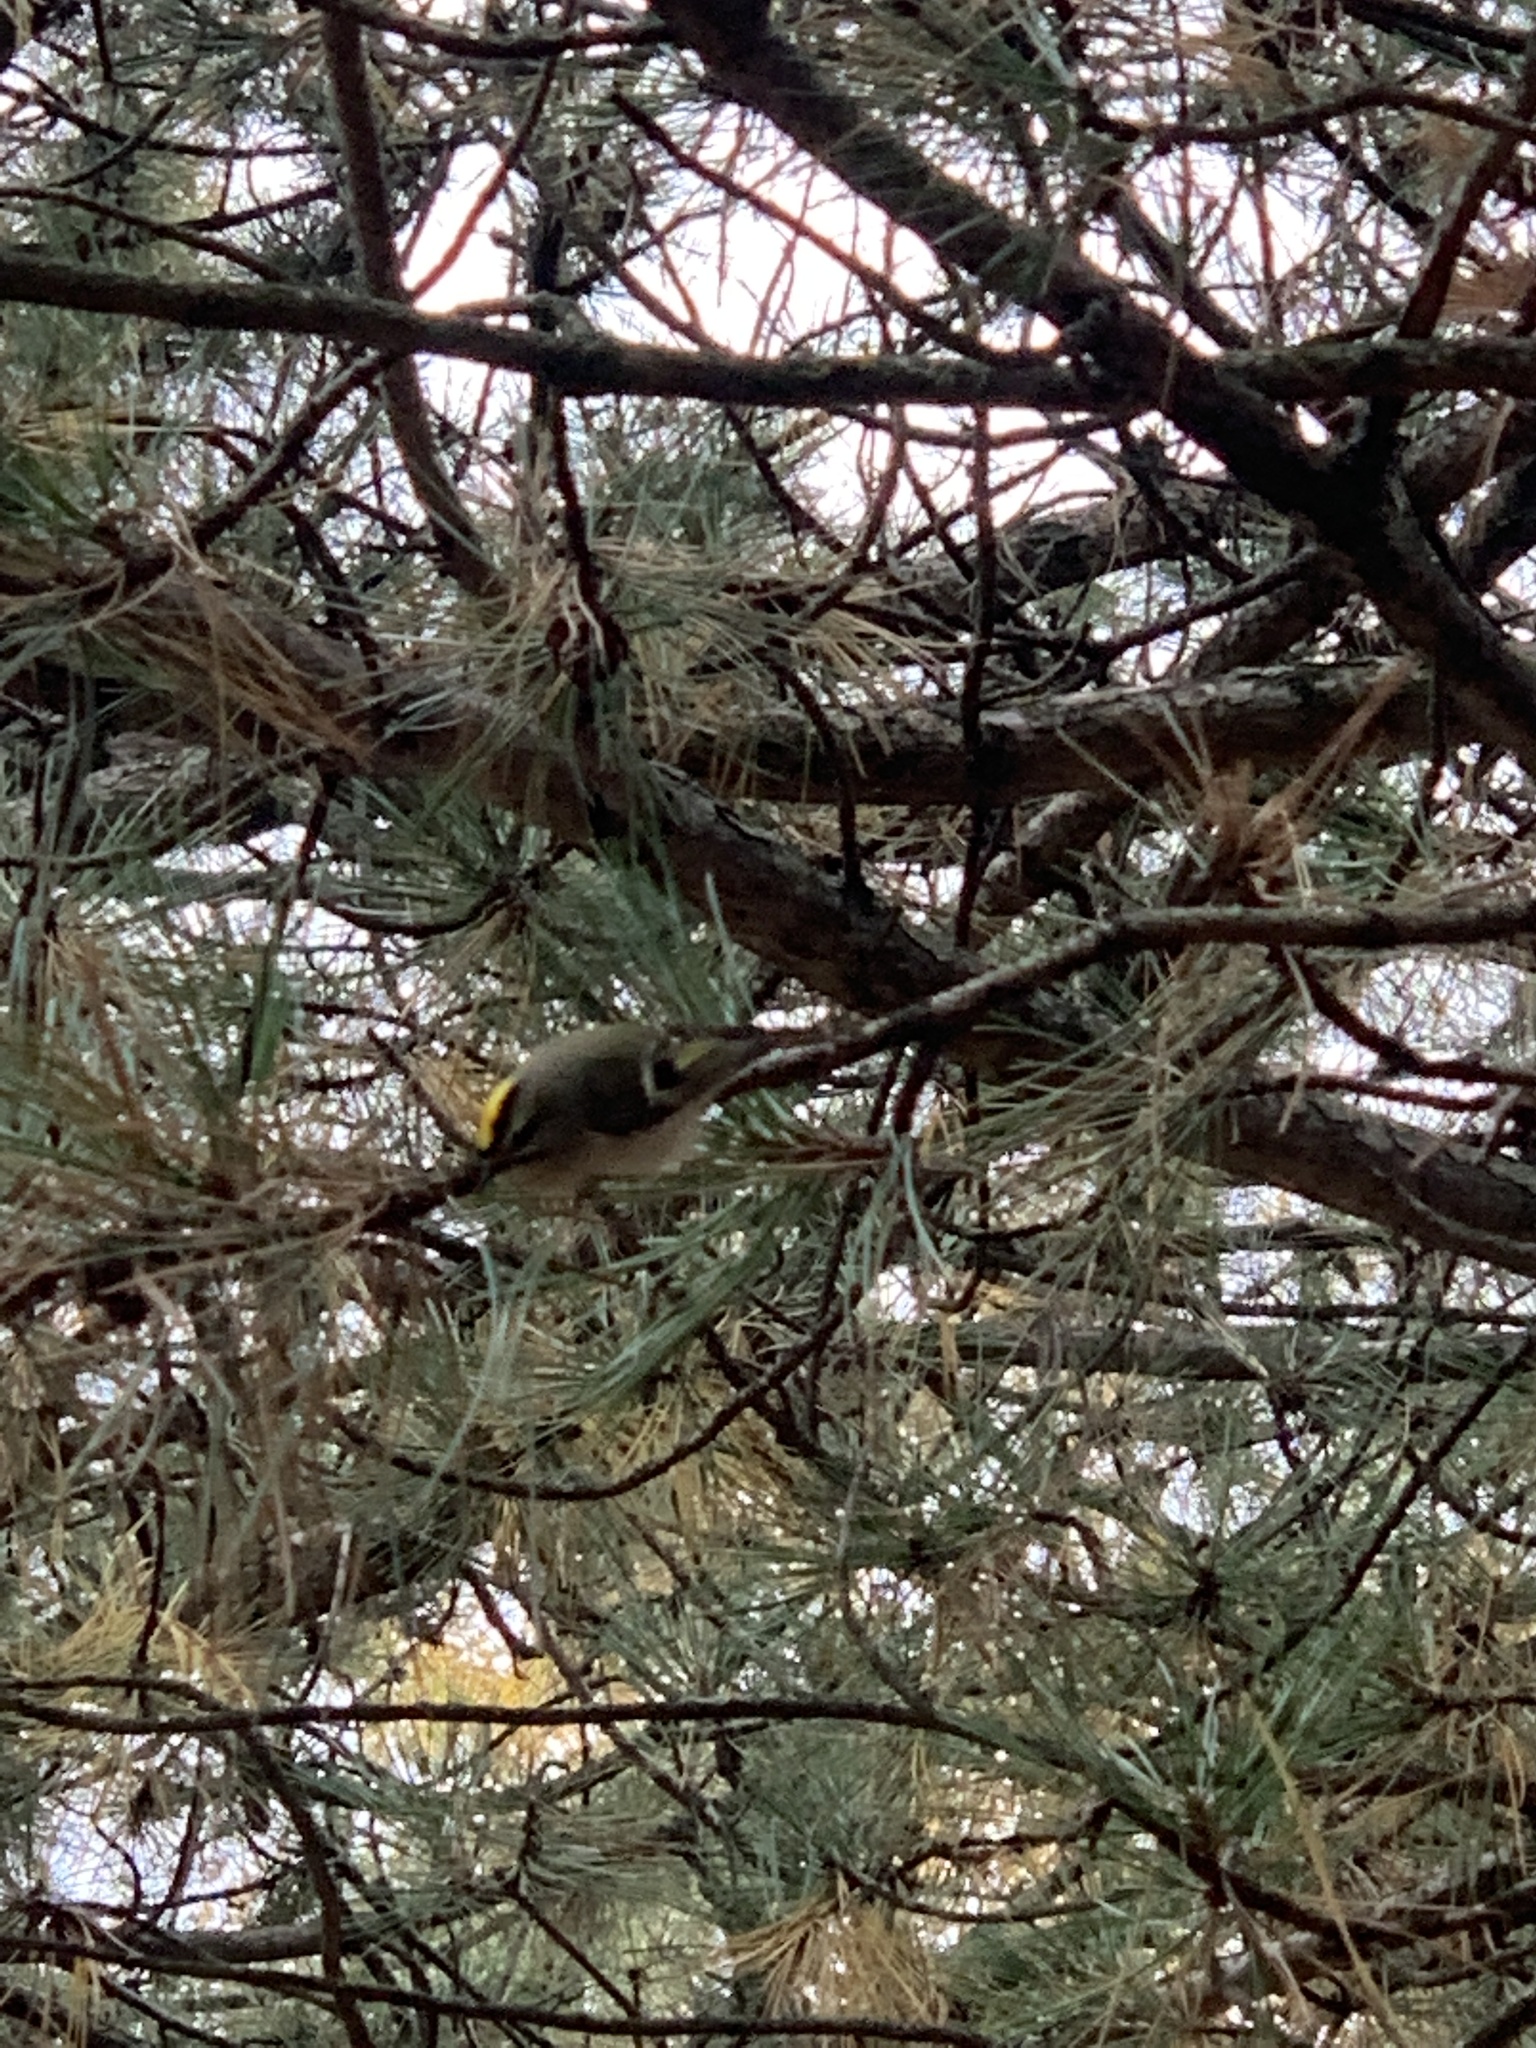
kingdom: Animalia
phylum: Chordata
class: Aves
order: Passeriformes
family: Regulidae
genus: Regulus
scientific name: Regulus satrapa
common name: Golden-crowned kinglet
